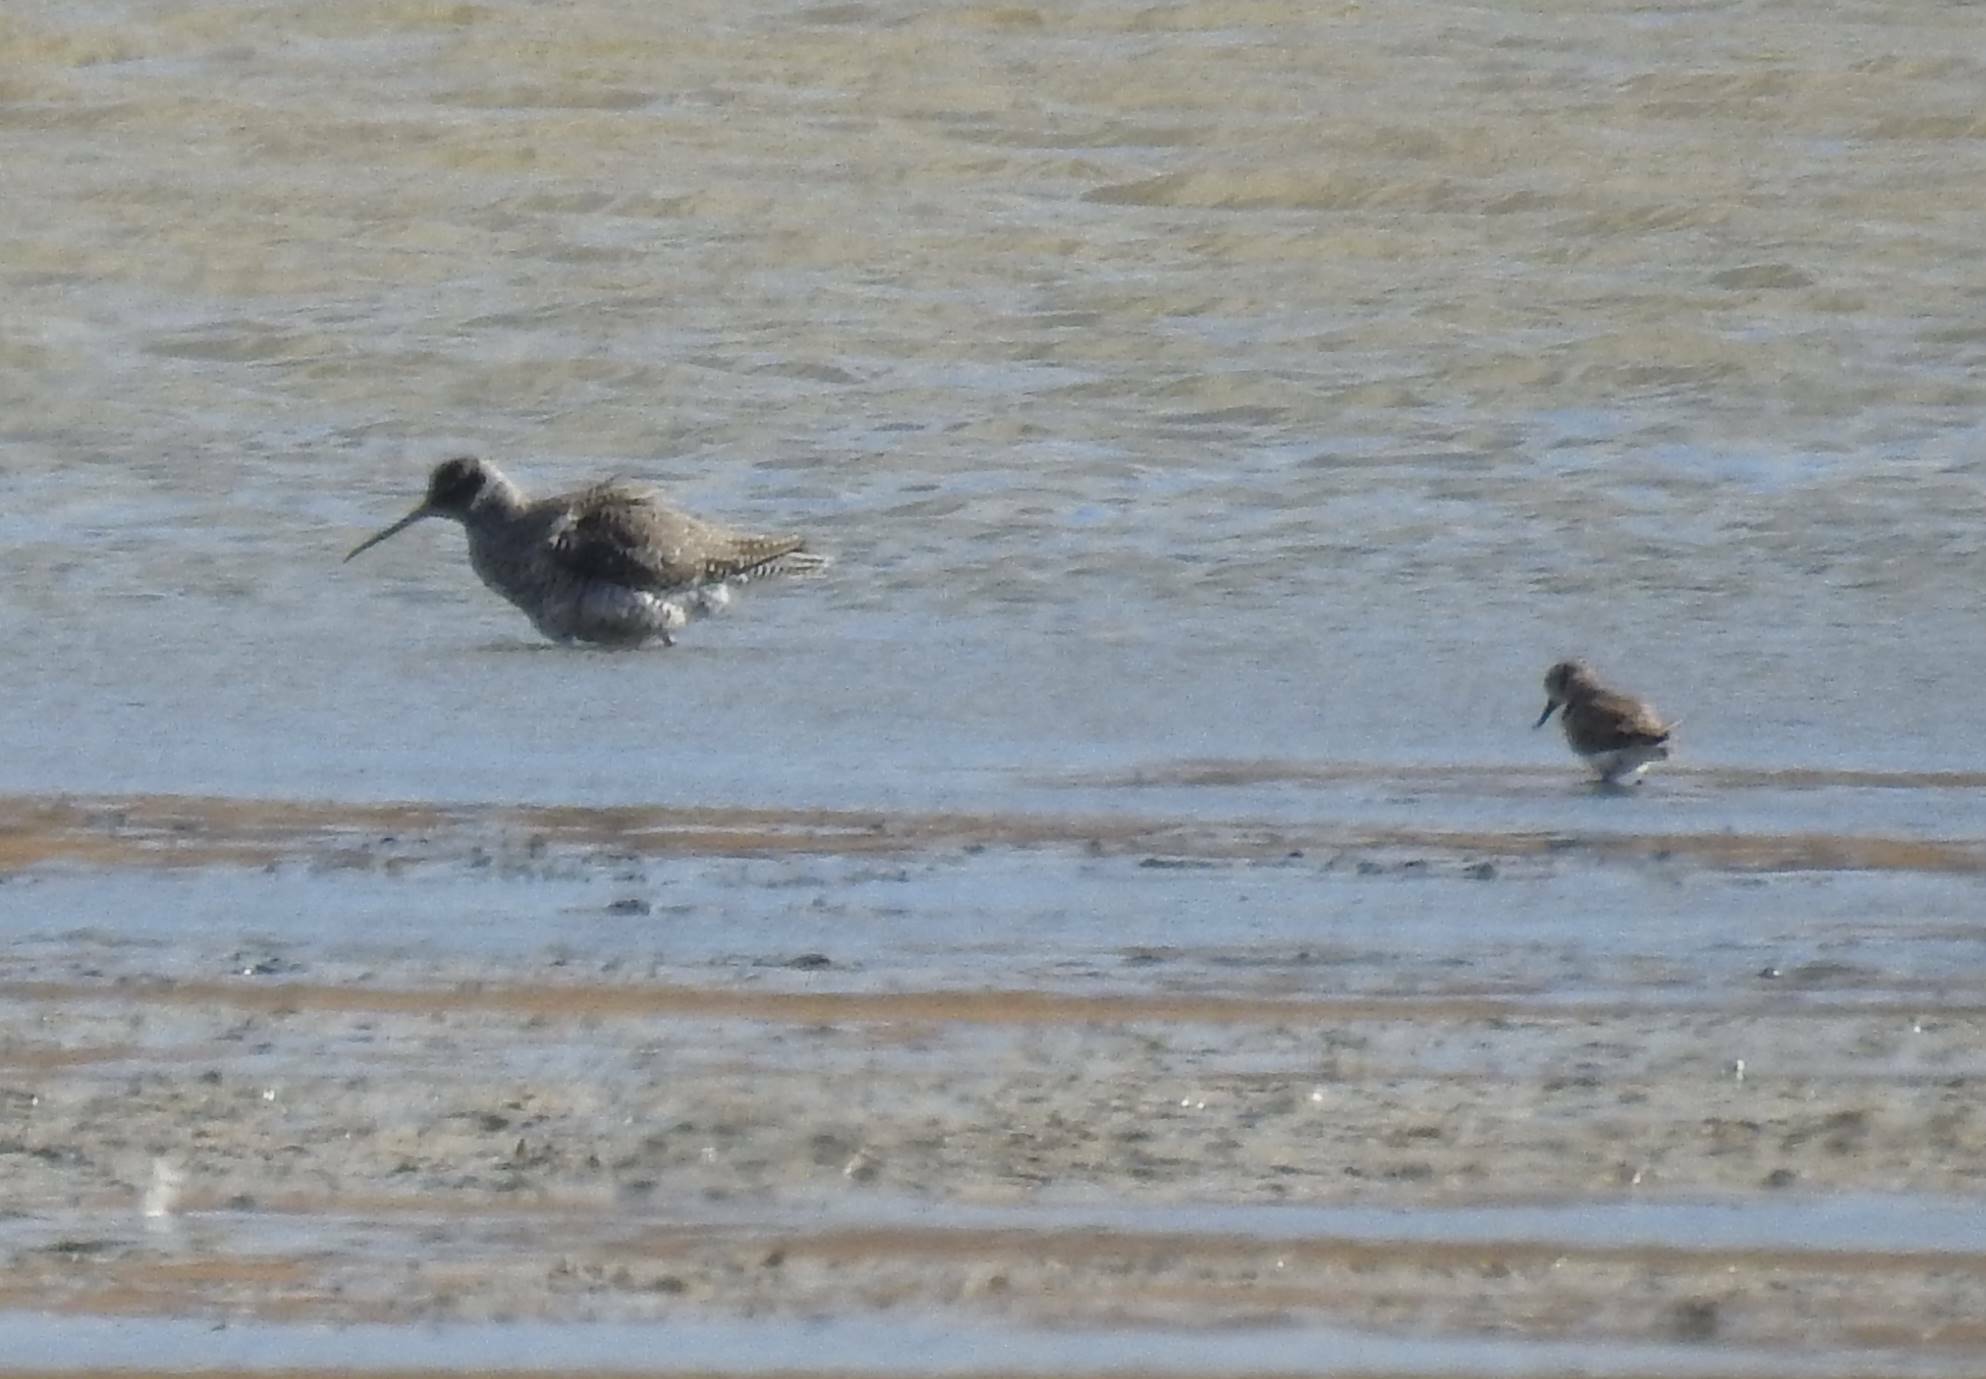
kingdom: Animalia
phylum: Chordata
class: Aves
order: Charadriiformes
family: Scolopacidae
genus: Tringa
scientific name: Tringa erythropus
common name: Spotted redshank
